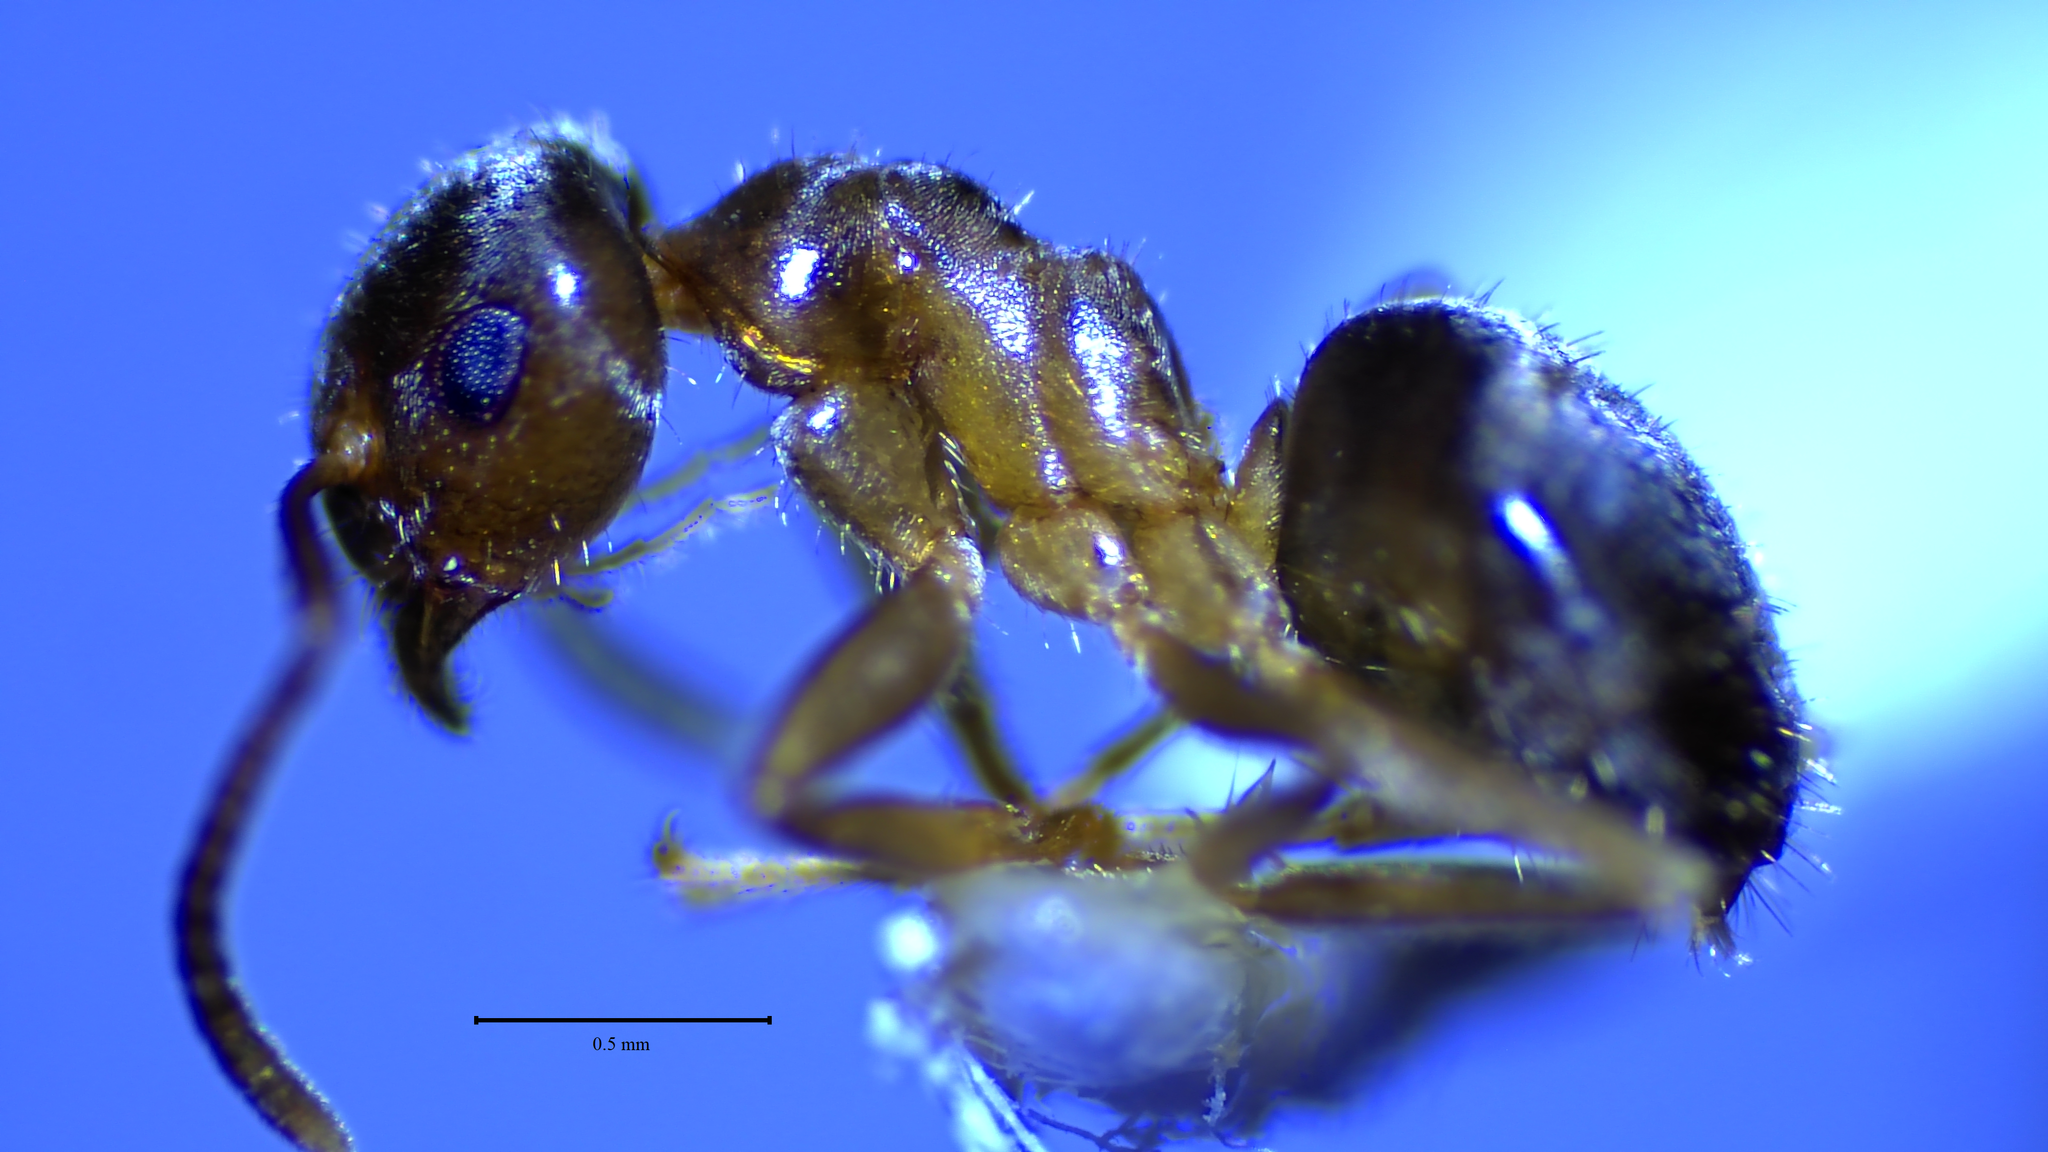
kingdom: Animalia
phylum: Arthropoda
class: Insecta
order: Hymenoptera
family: Formicidae
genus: Lasius
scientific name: Lasius neoniger
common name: Turfgrass ant
